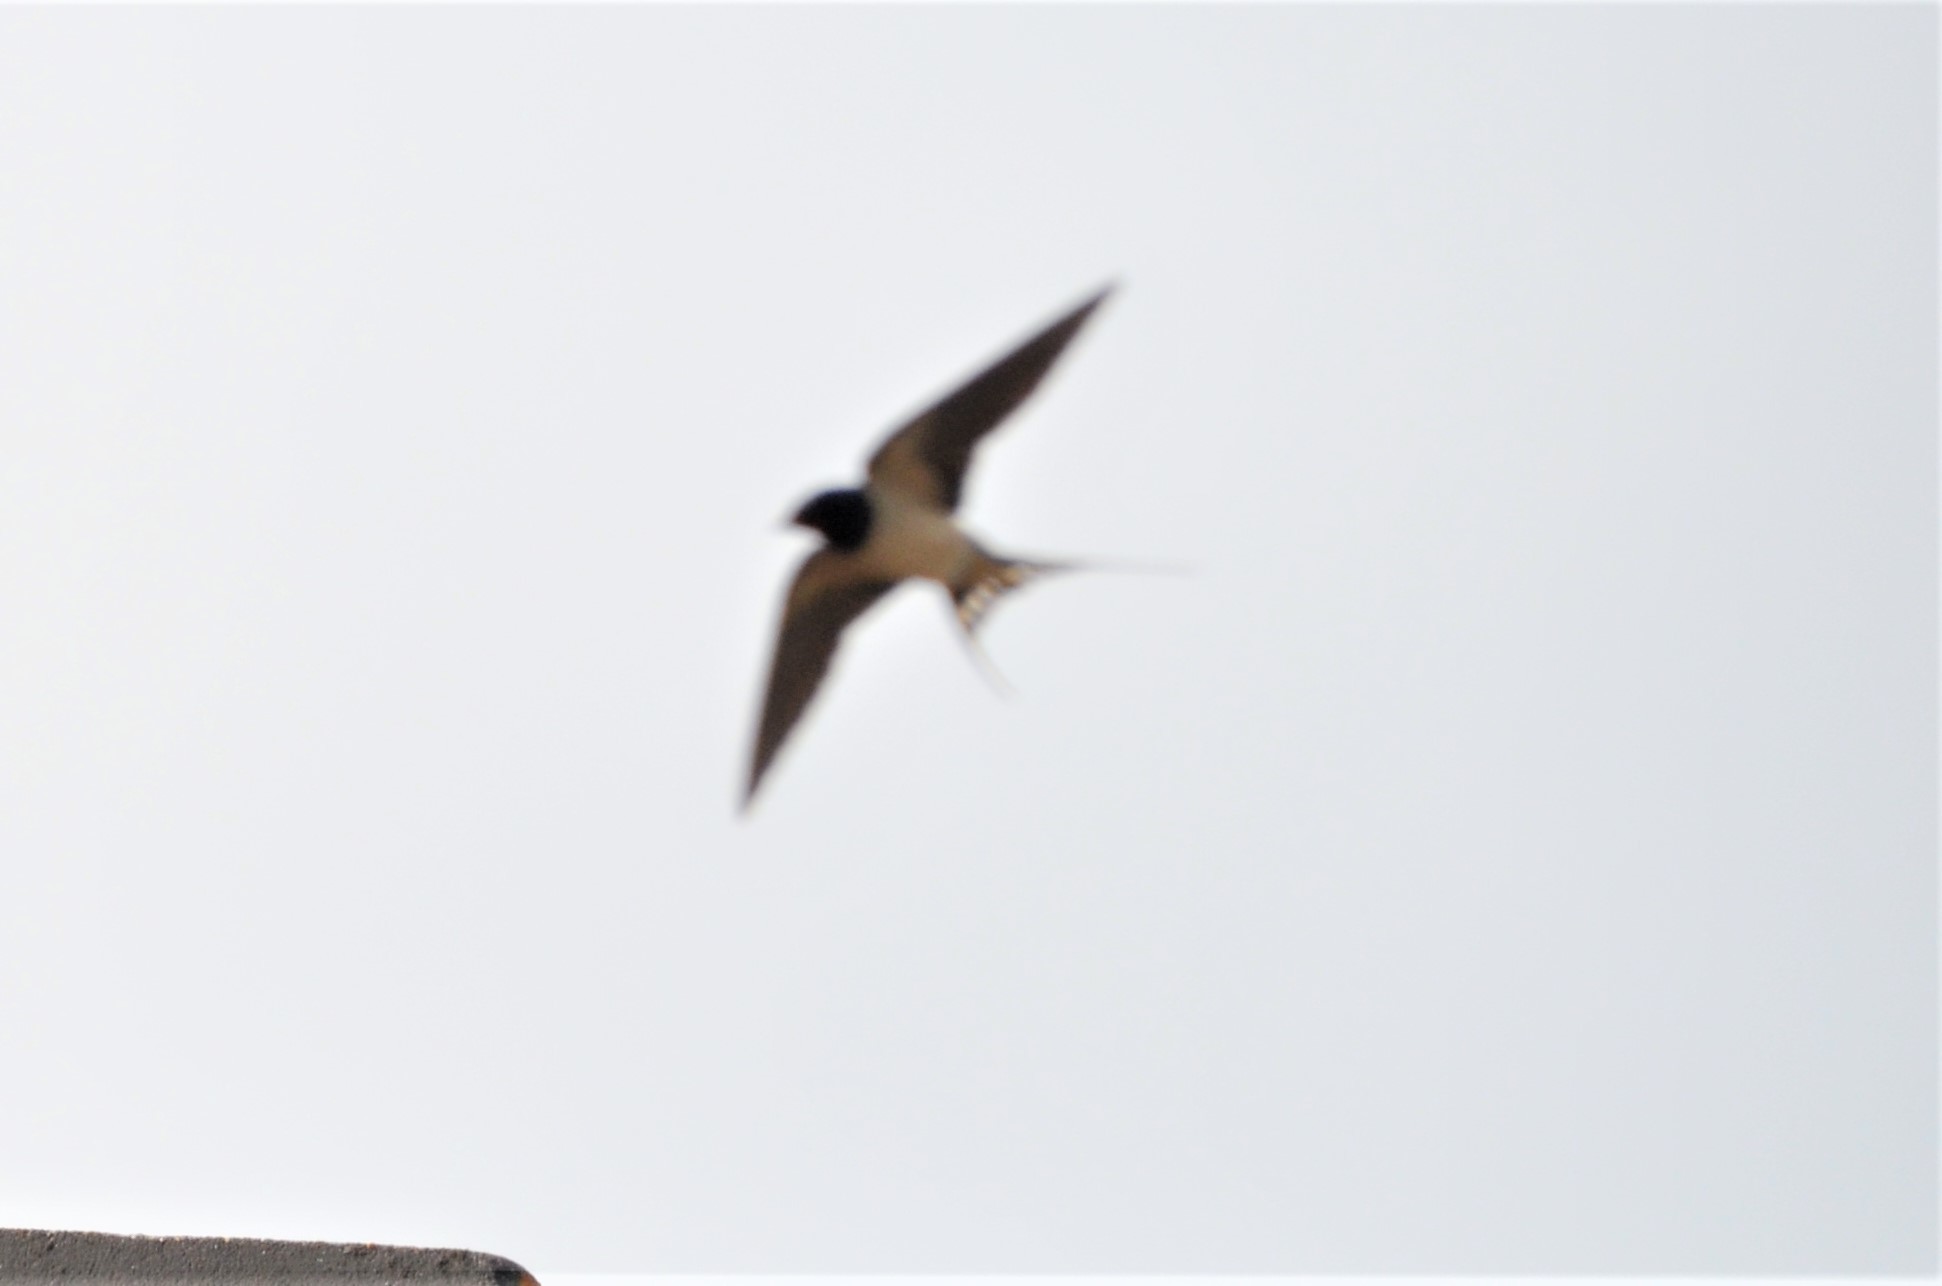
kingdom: Animalia
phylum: Chordata
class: Aves
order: Passeriformes
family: Hirundinidae
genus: Hirundo
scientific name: Hirundo rustica
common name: Barn swallow
